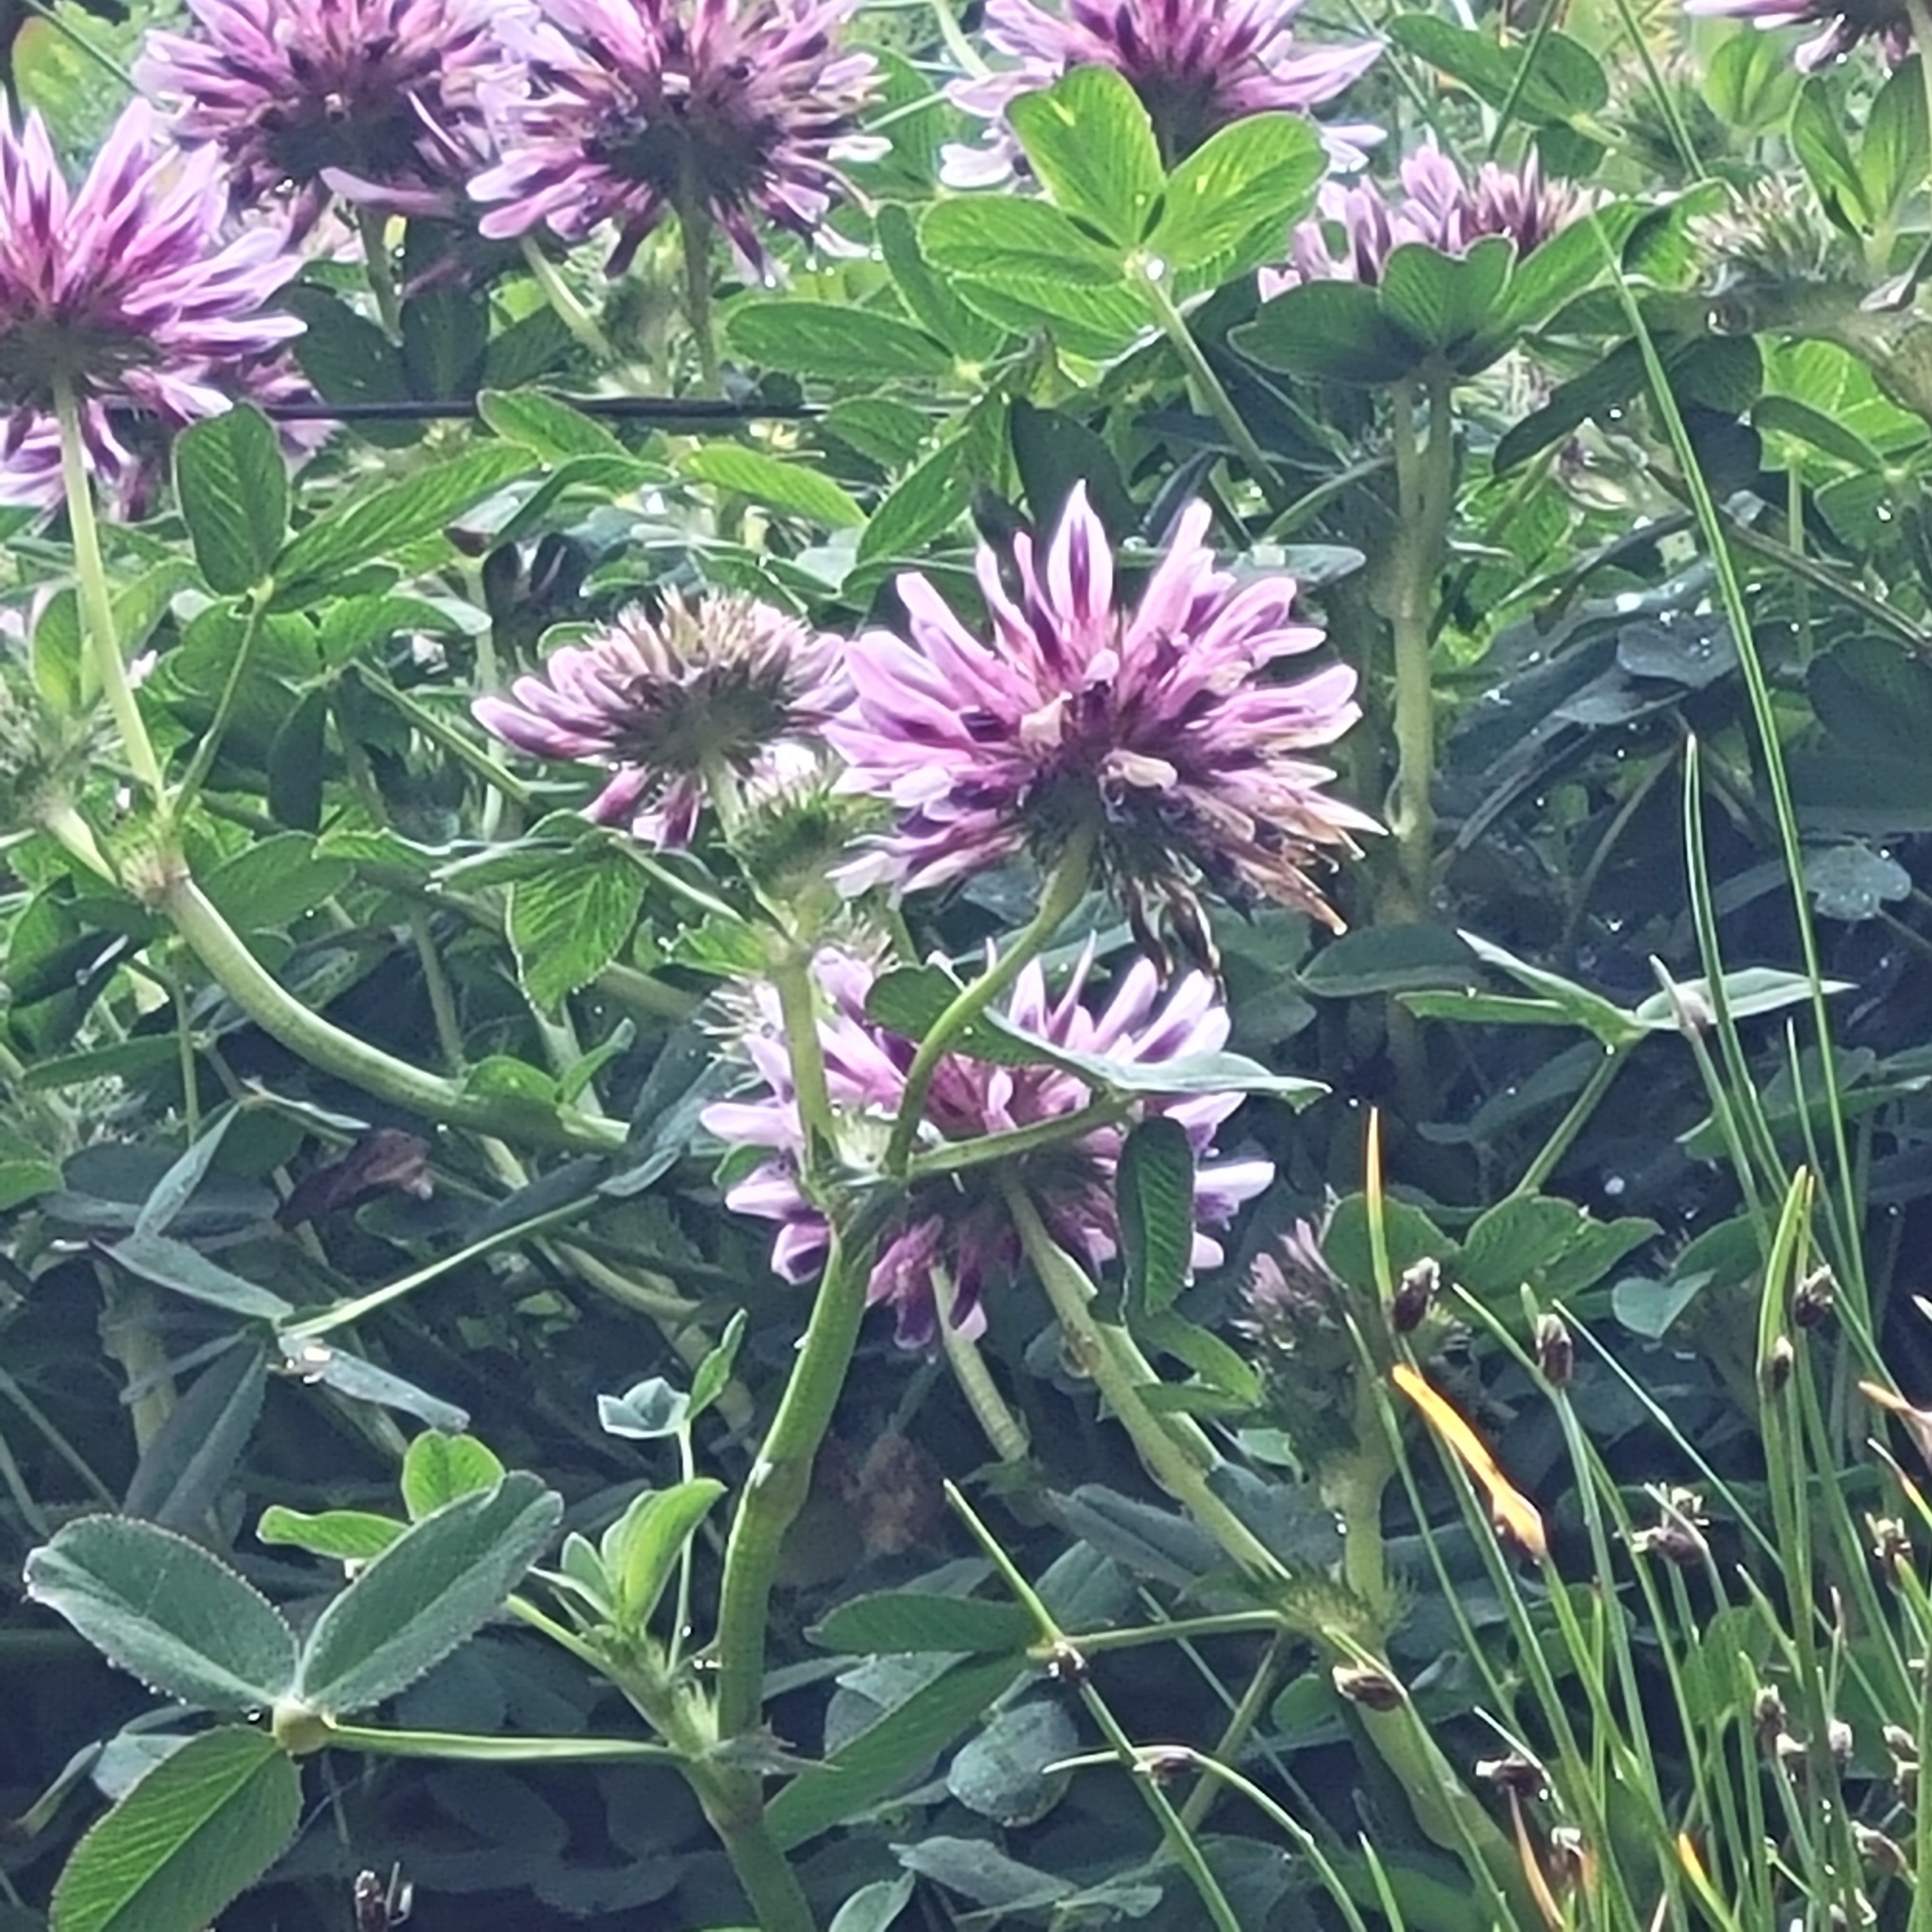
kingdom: Plantae
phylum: Tracheophyta
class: Magnoliopsida
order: Fabales
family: Fabaceae
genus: Trifolium
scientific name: Trifolium wormskioldii
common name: Springbank clover
